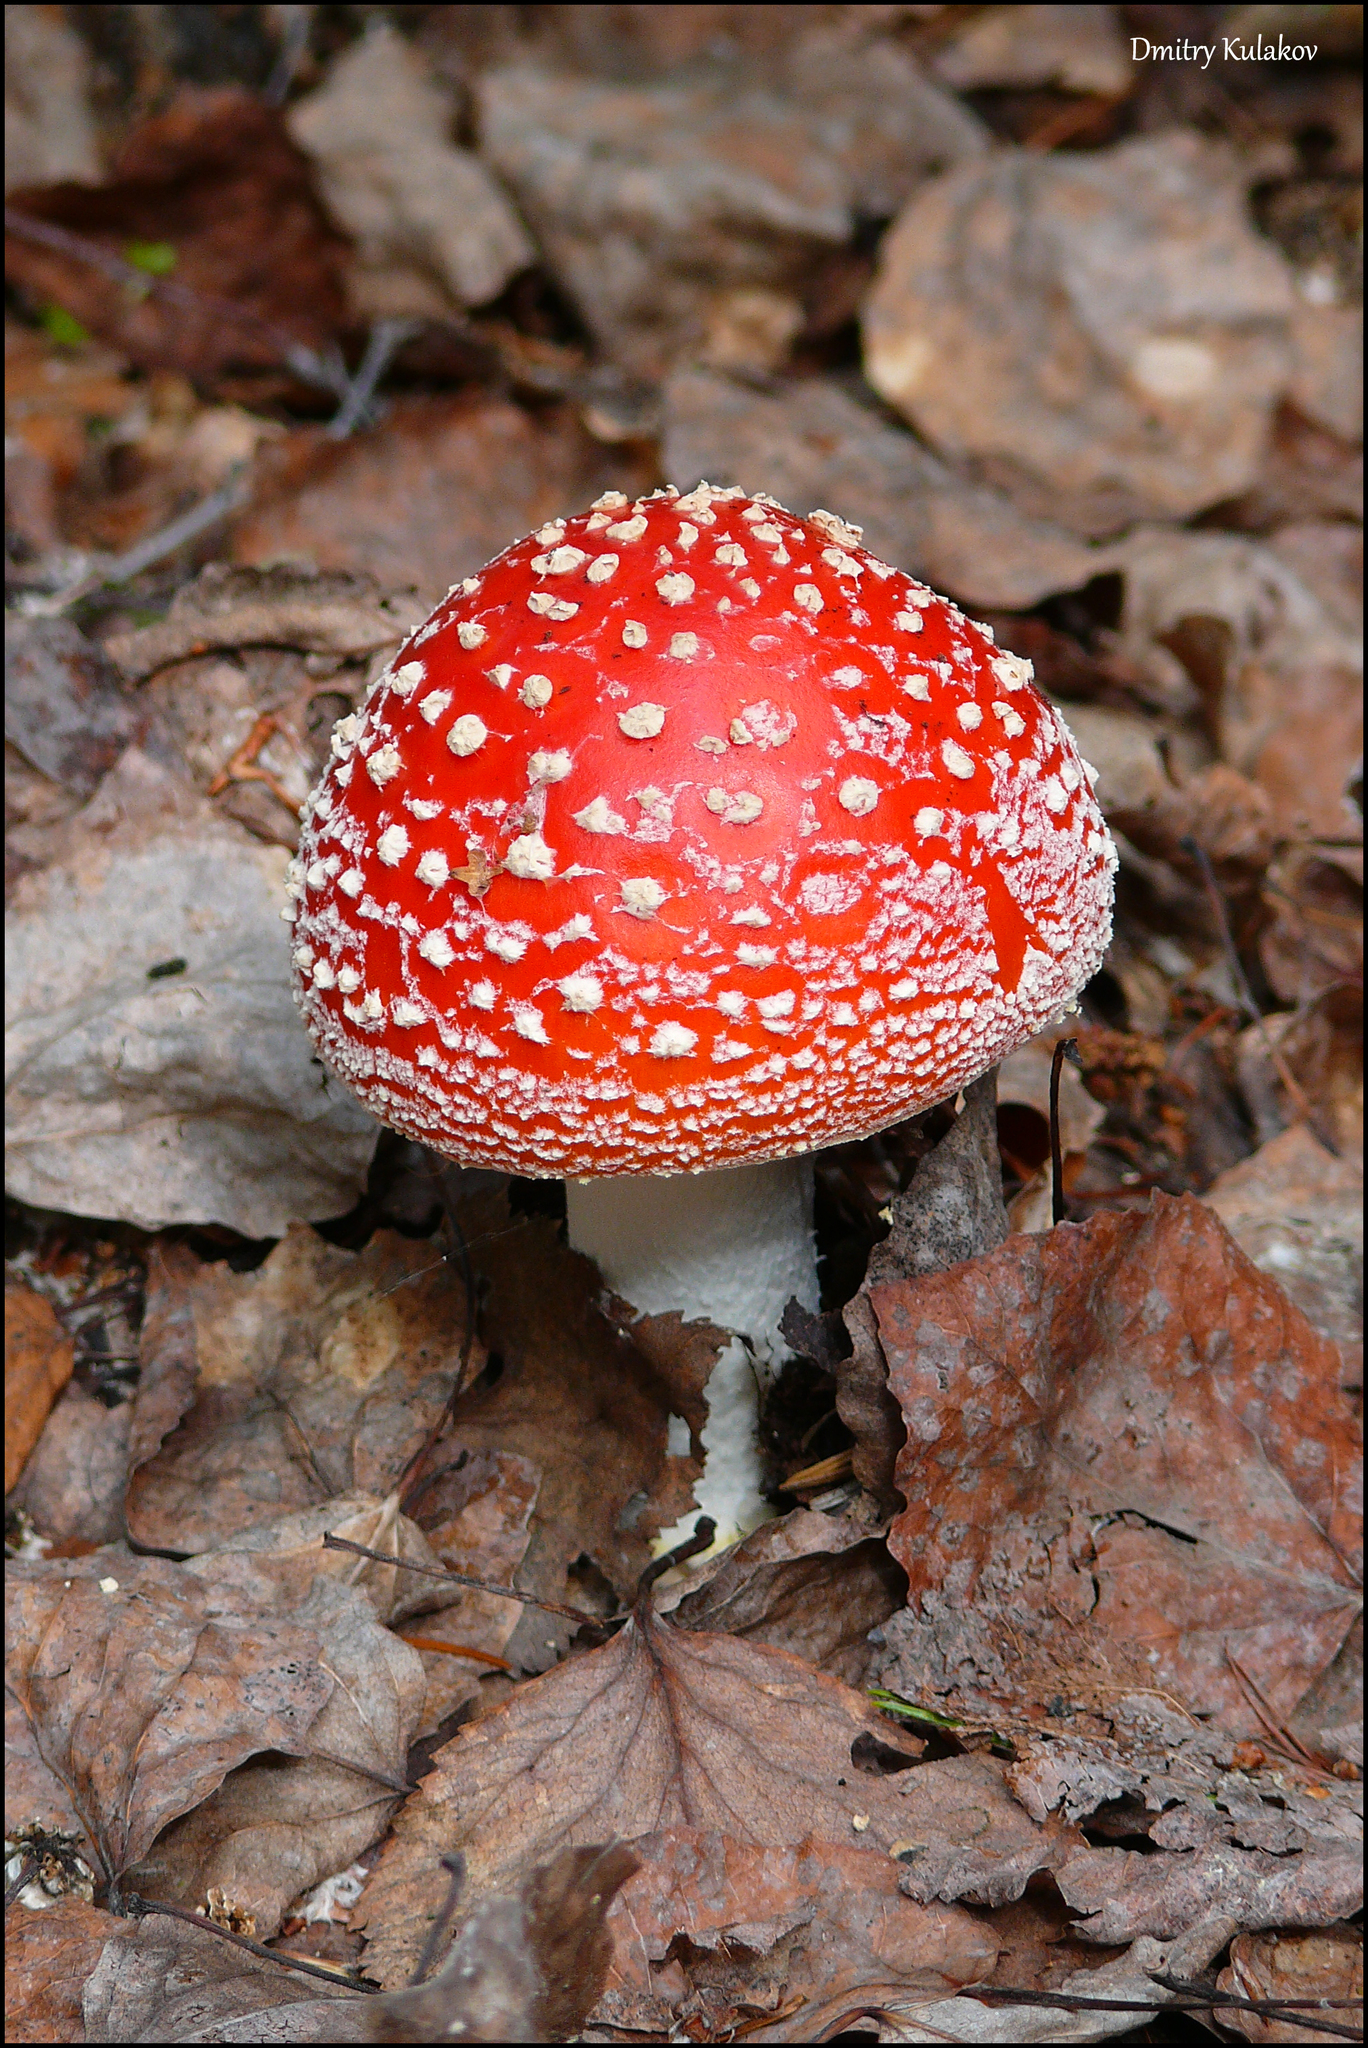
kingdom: Fungi
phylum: Basidiomycota
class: Agaricomycetes
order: Agaricales
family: Amanitaceae
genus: Amanita
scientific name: Amanita muscaria
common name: Fly agaric
